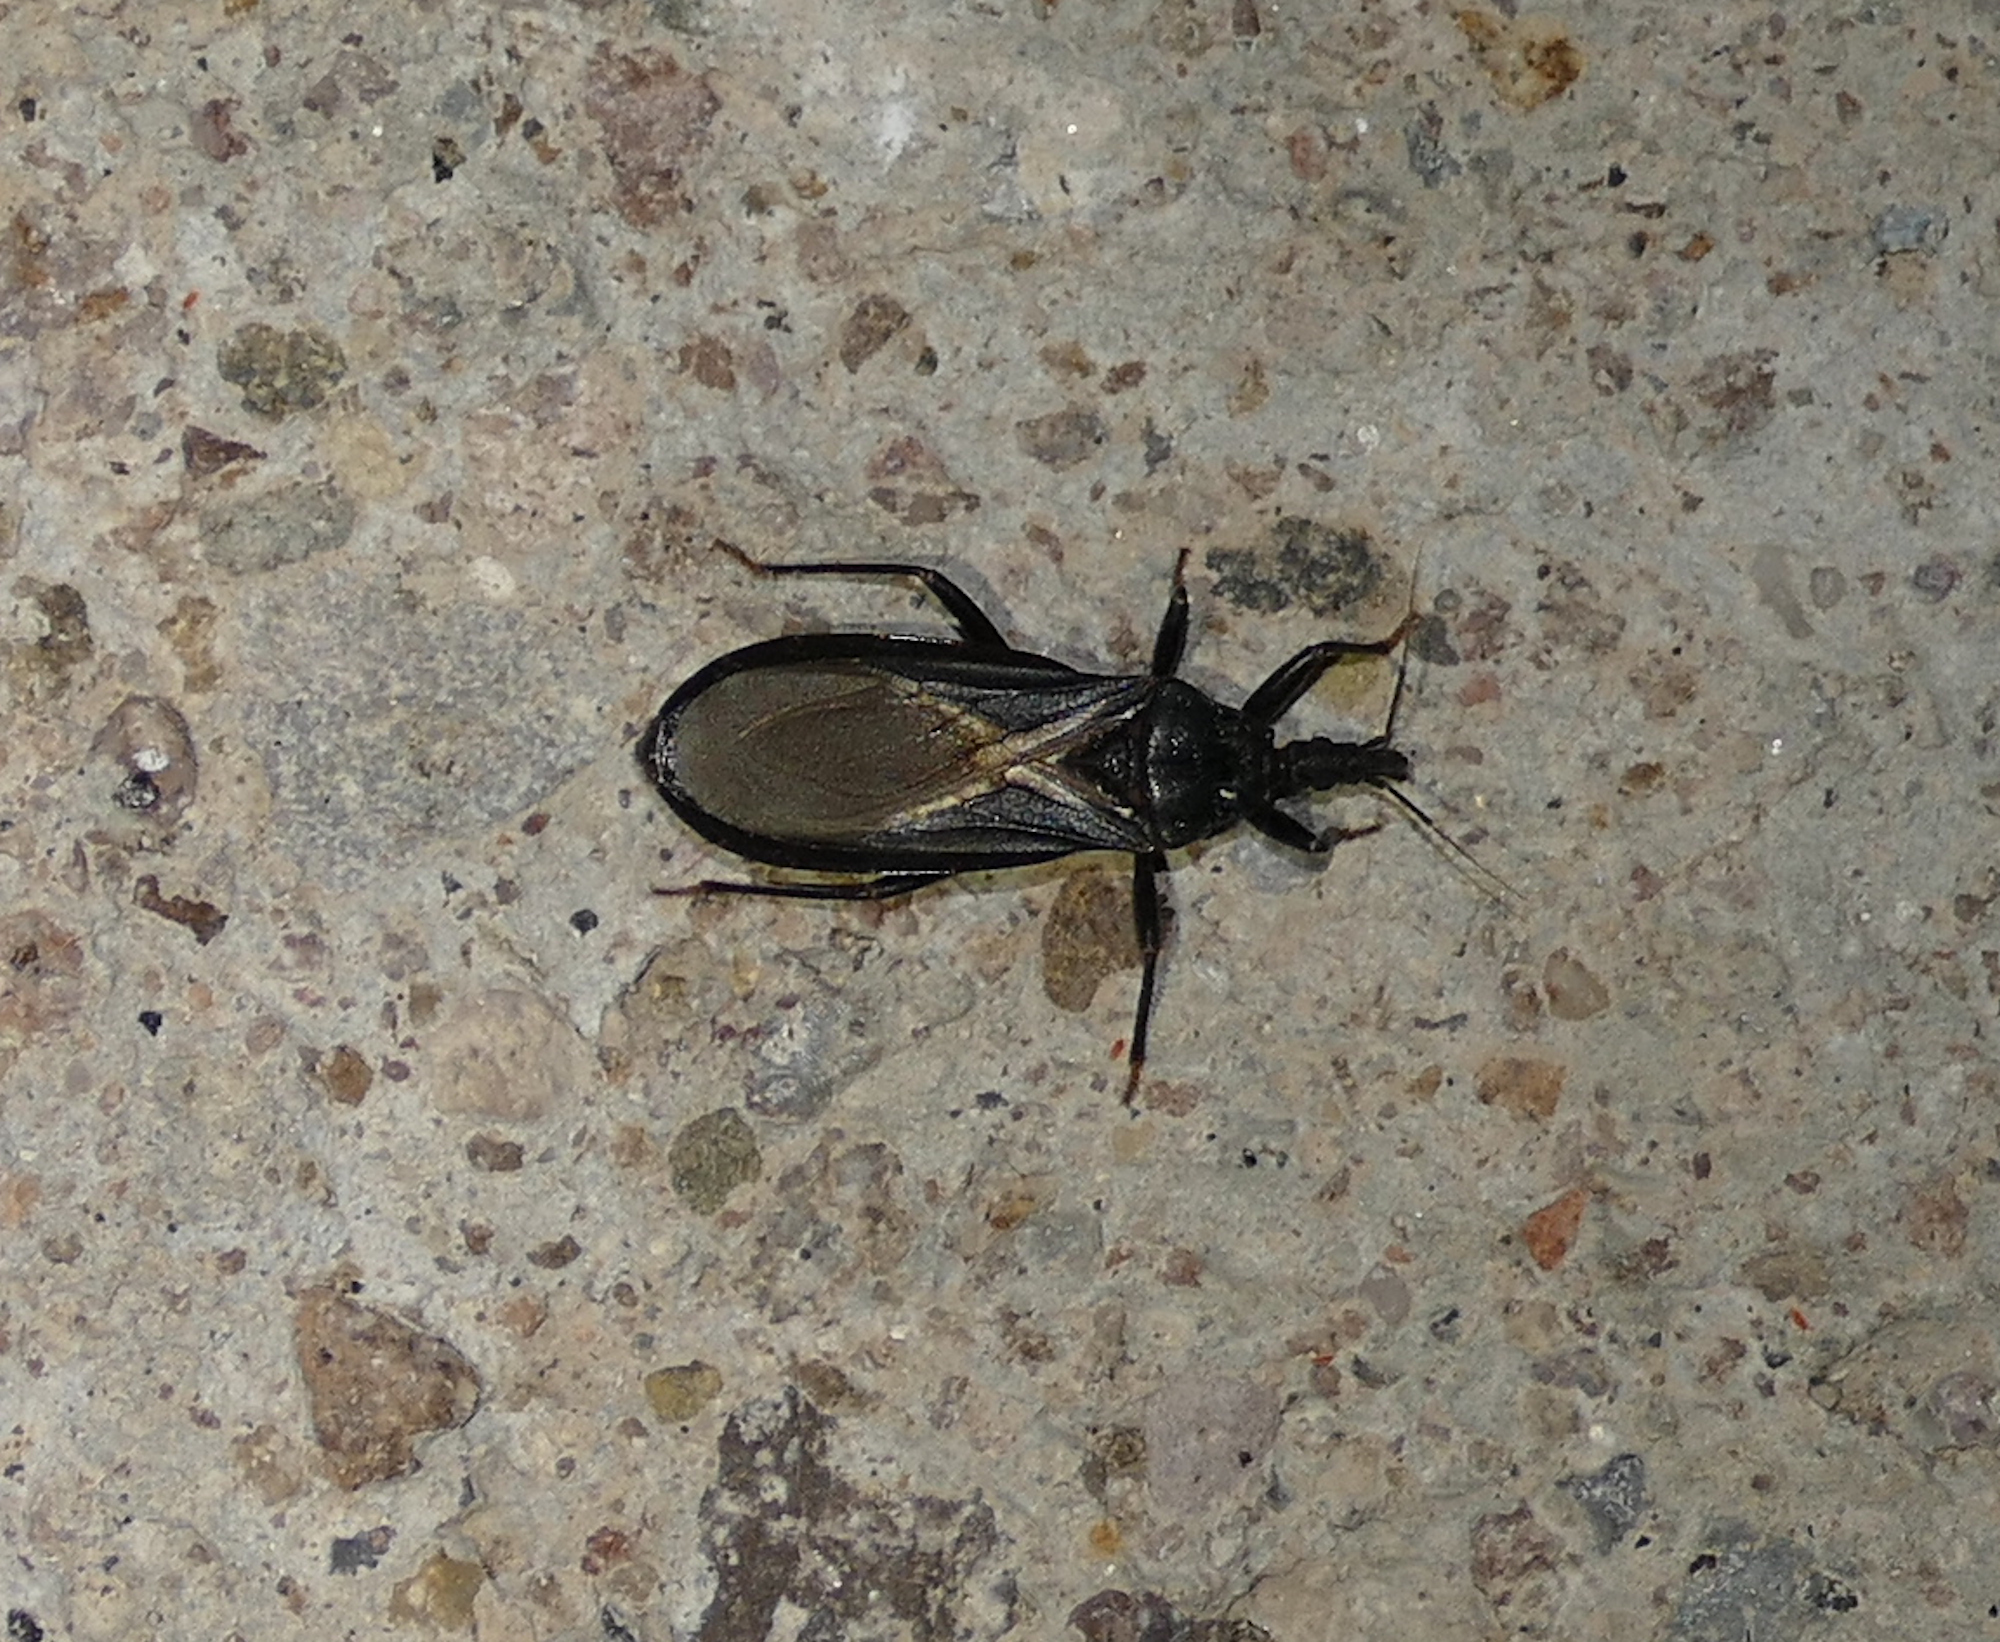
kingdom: Animalia
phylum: Arthropoda
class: Insecta
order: Hemiptera
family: Reduviidae
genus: Triatoma
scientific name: Triatoma protracta
